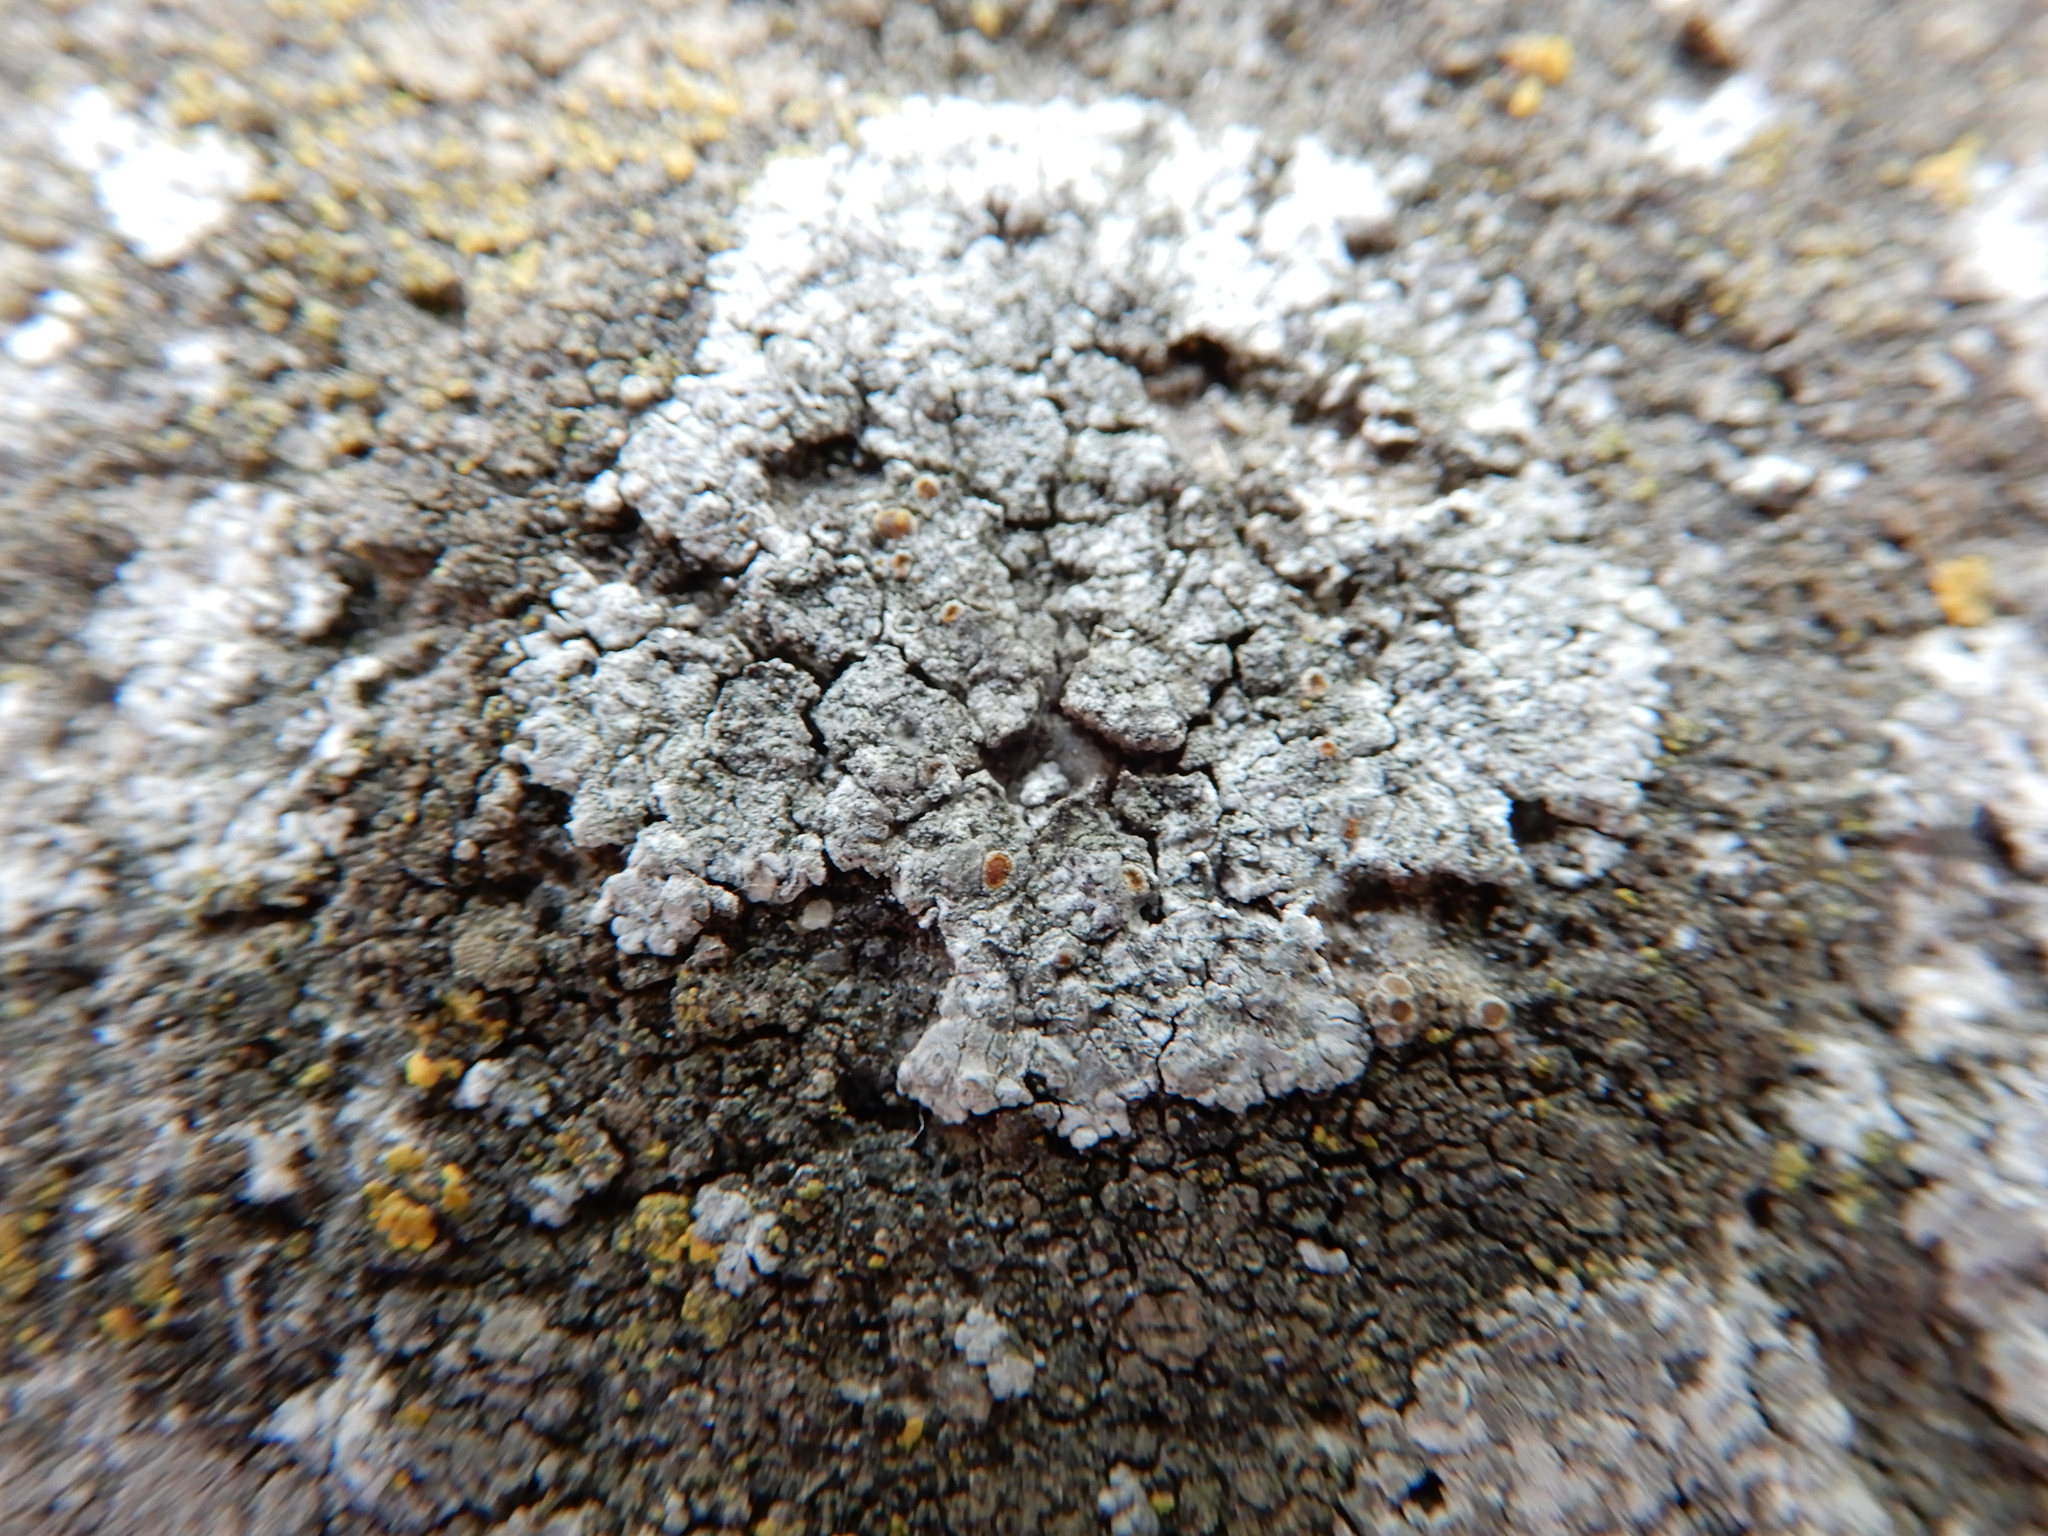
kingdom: Fungi
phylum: Ascomycota
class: Lecanoromycetes
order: Teloschistales
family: Teloschistaceae
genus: Kuettlingeria
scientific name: Kuettlingeria teicholyta
